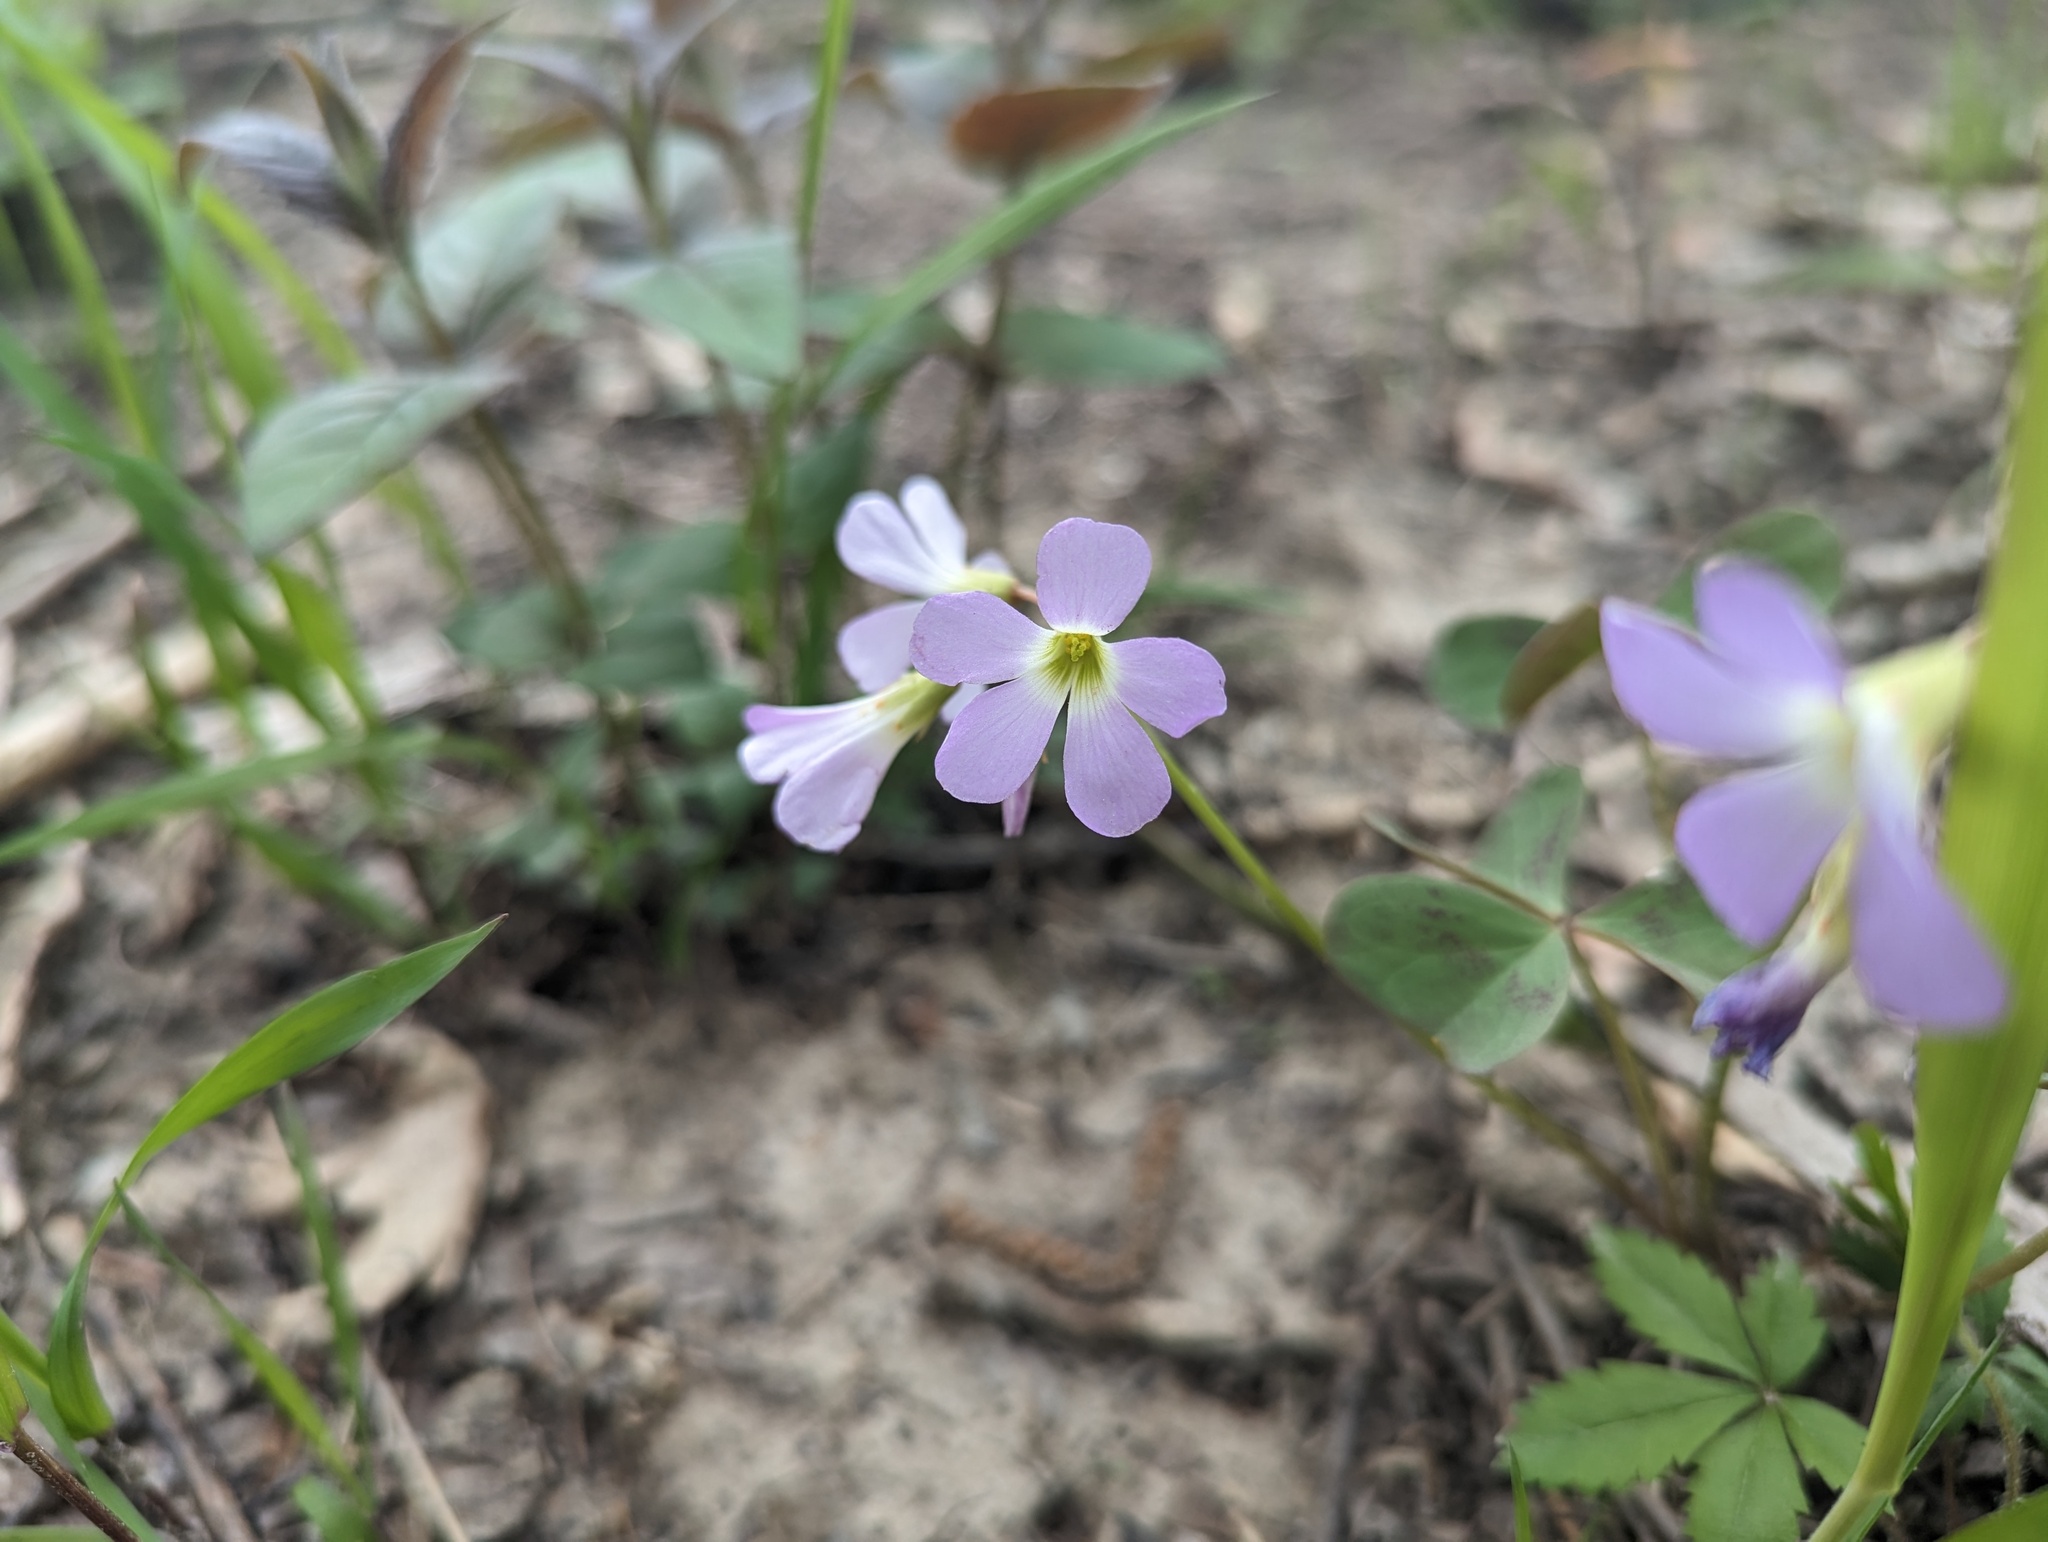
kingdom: Plantae
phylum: Tracheophyta
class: Magnoliopsida
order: Oxalidales
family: Oxalidaceae
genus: Oxalis
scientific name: Oxalis violacea
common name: Violet wood-sorrel
